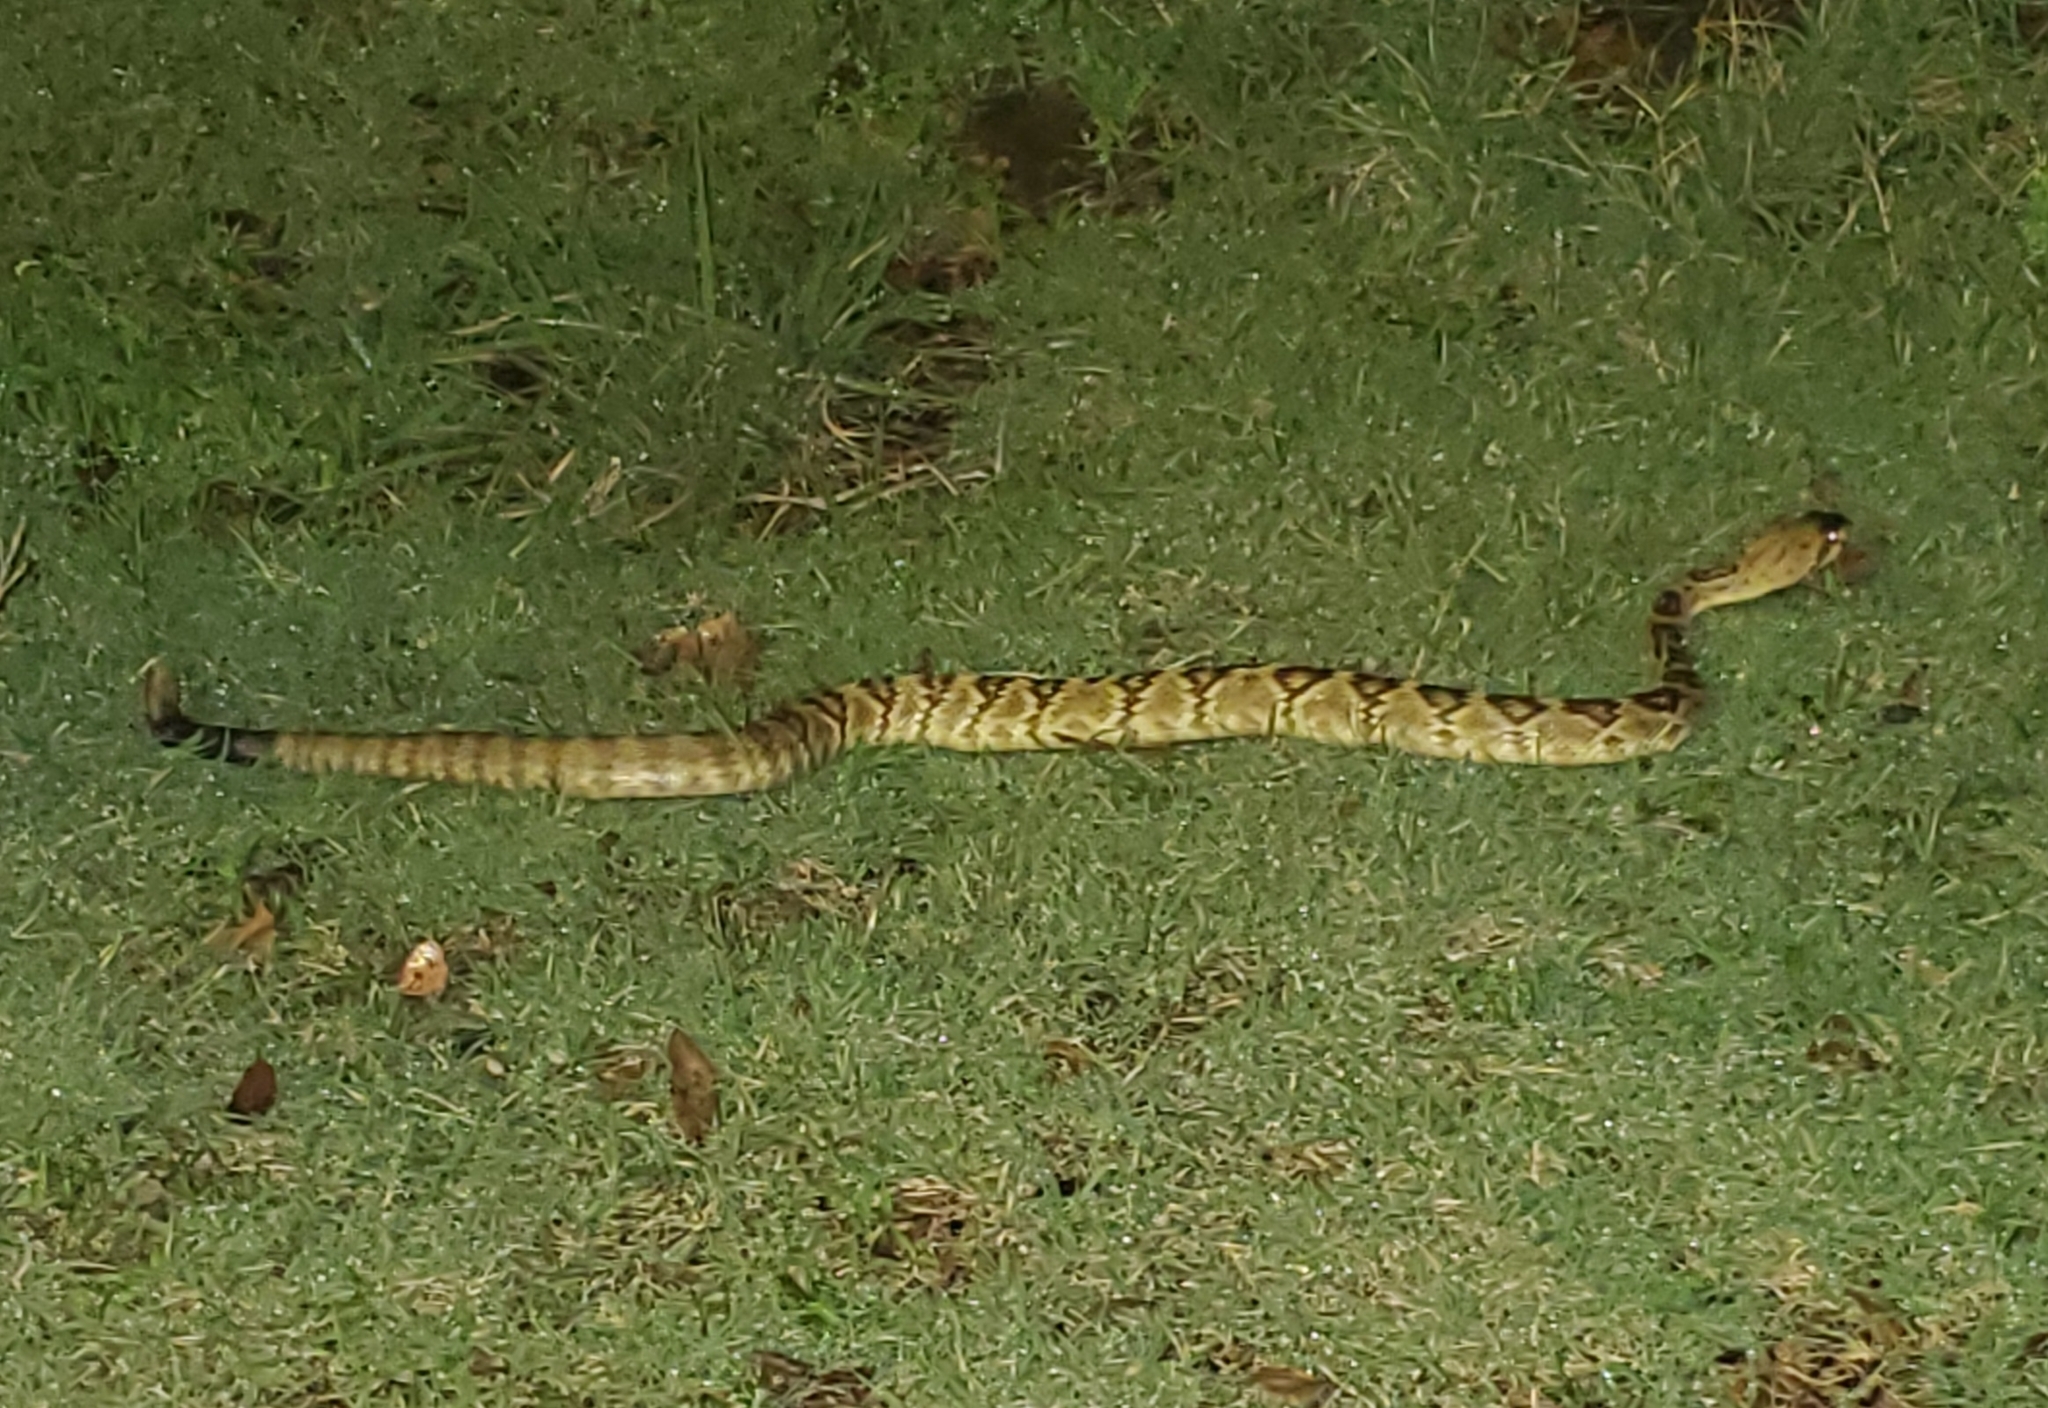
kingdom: Animalia
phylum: Chordata
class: Squamata
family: Viperidae
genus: Crotalus
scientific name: Crotalus molossus
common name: Black tailed rattlesnake
